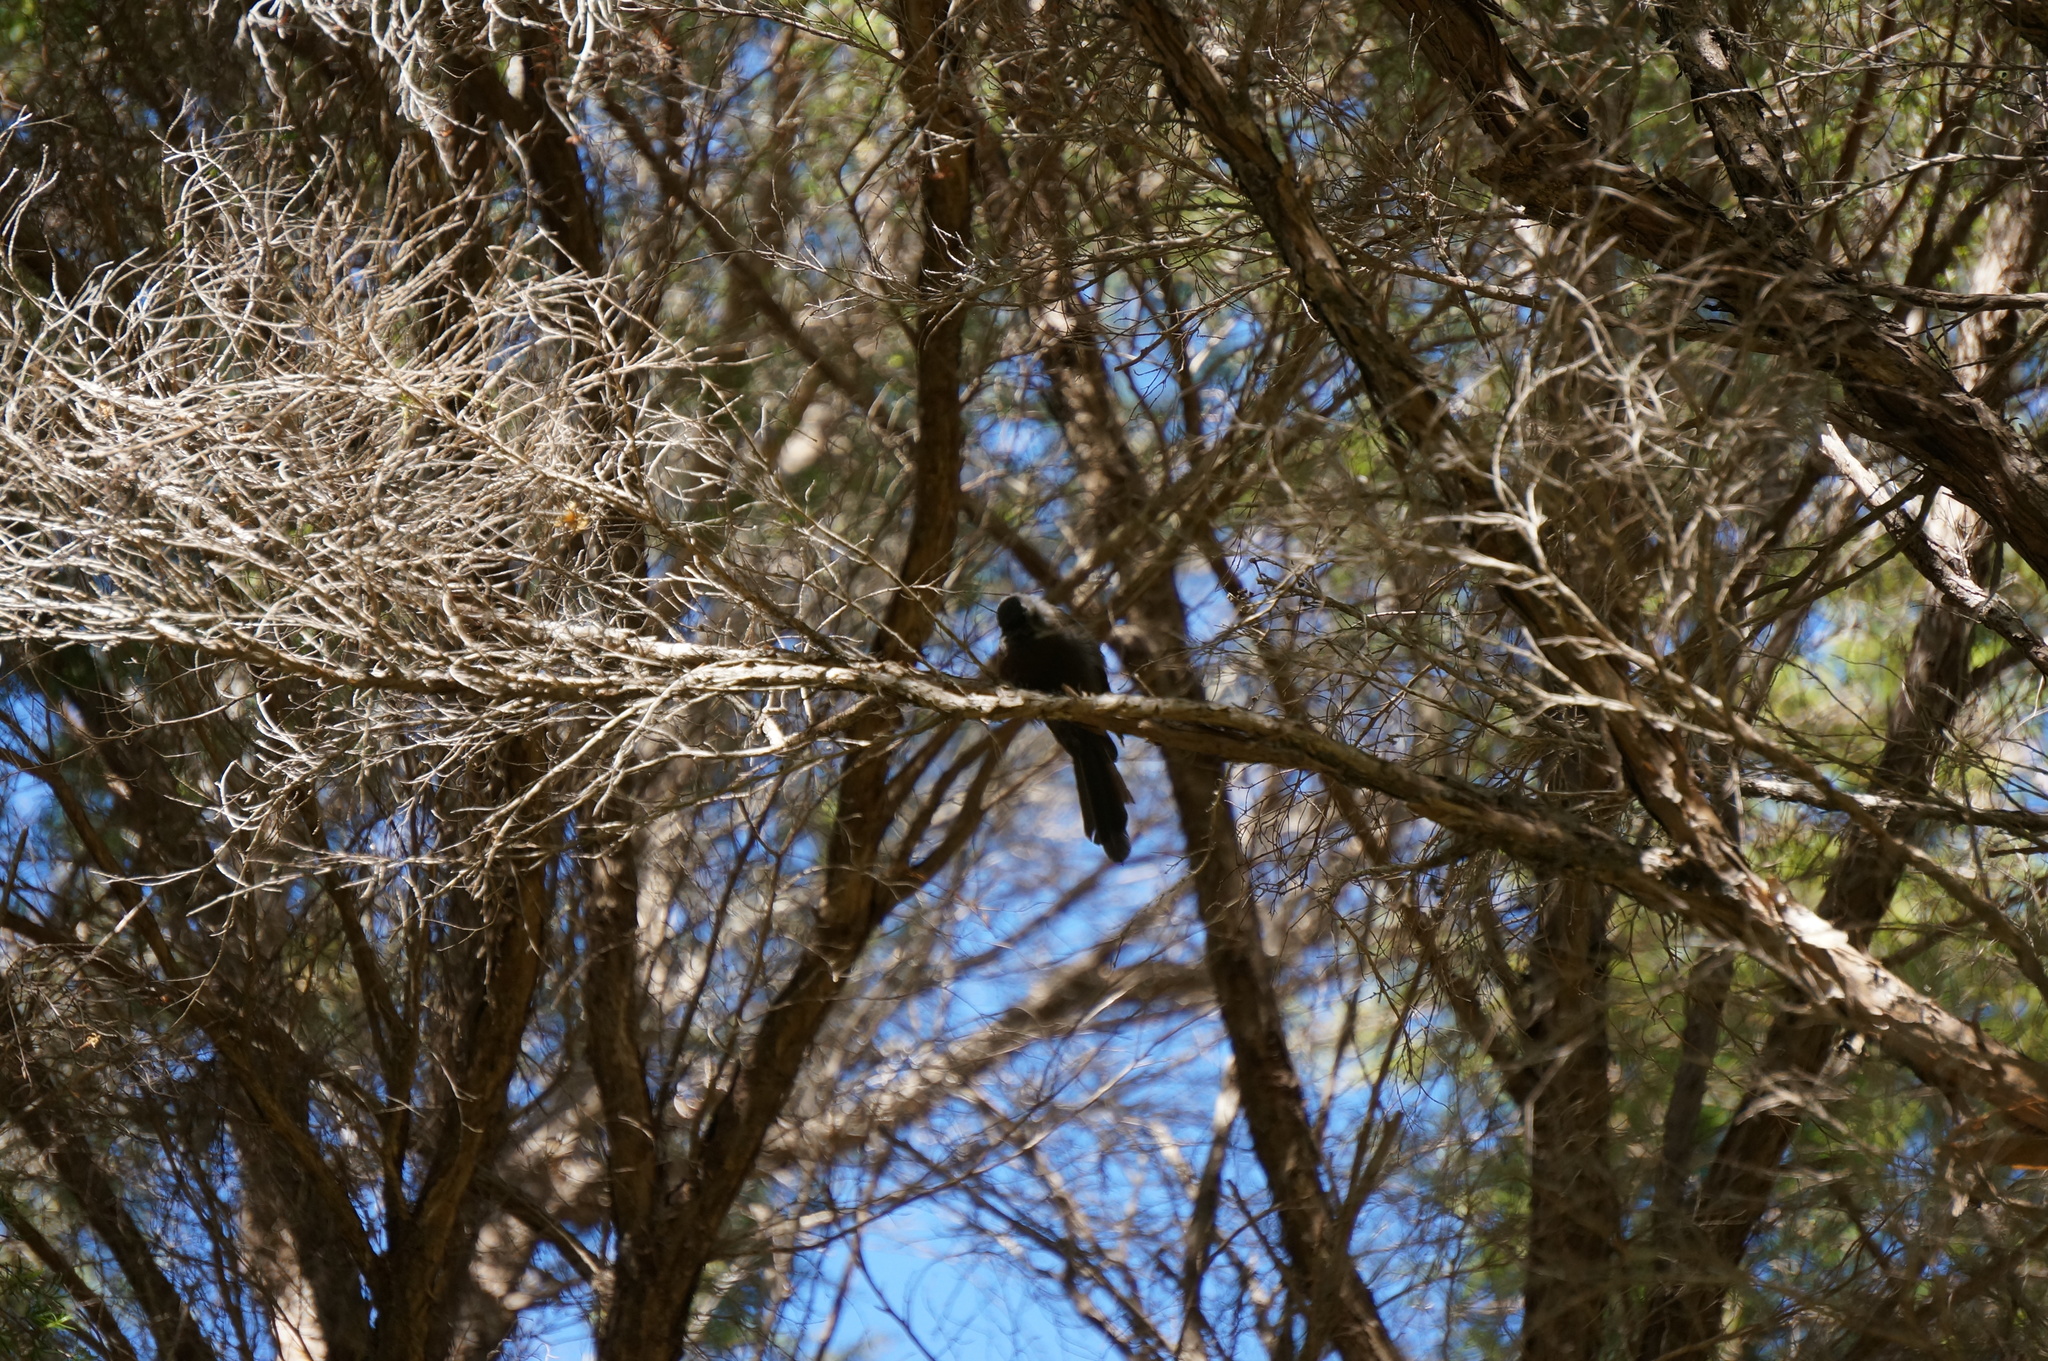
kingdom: Animalia
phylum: Chordata
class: Aves
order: Passeriformes
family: Rhipiduridae
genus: Rhipidura
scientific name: Rhipidura fuliginosa
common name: New zealand fantail
